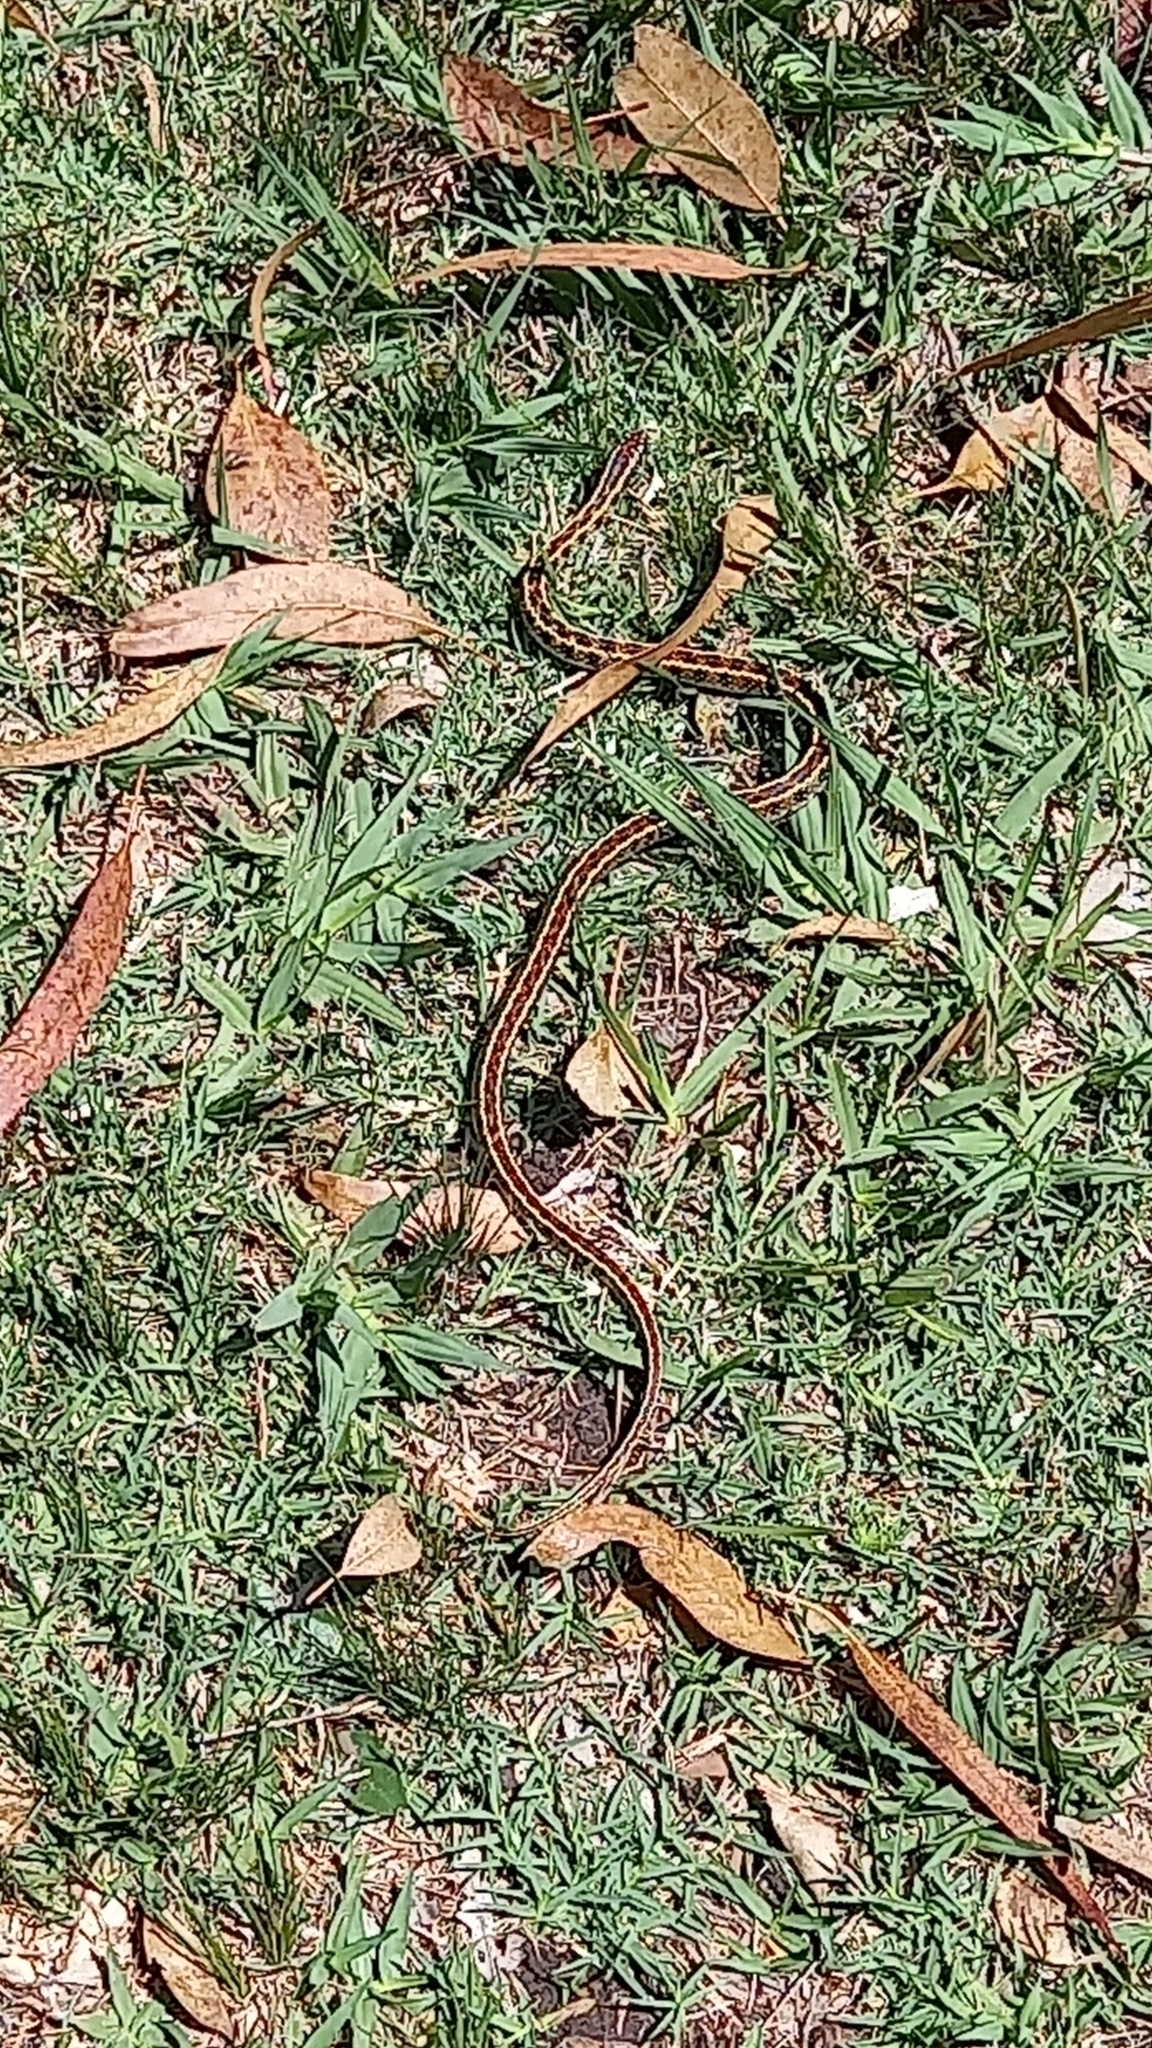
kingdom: Animalia
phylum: Chordata
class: Squamata
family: Colubridae
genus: Lygophis
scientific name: Lygophis anomalus
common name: English common name not available
